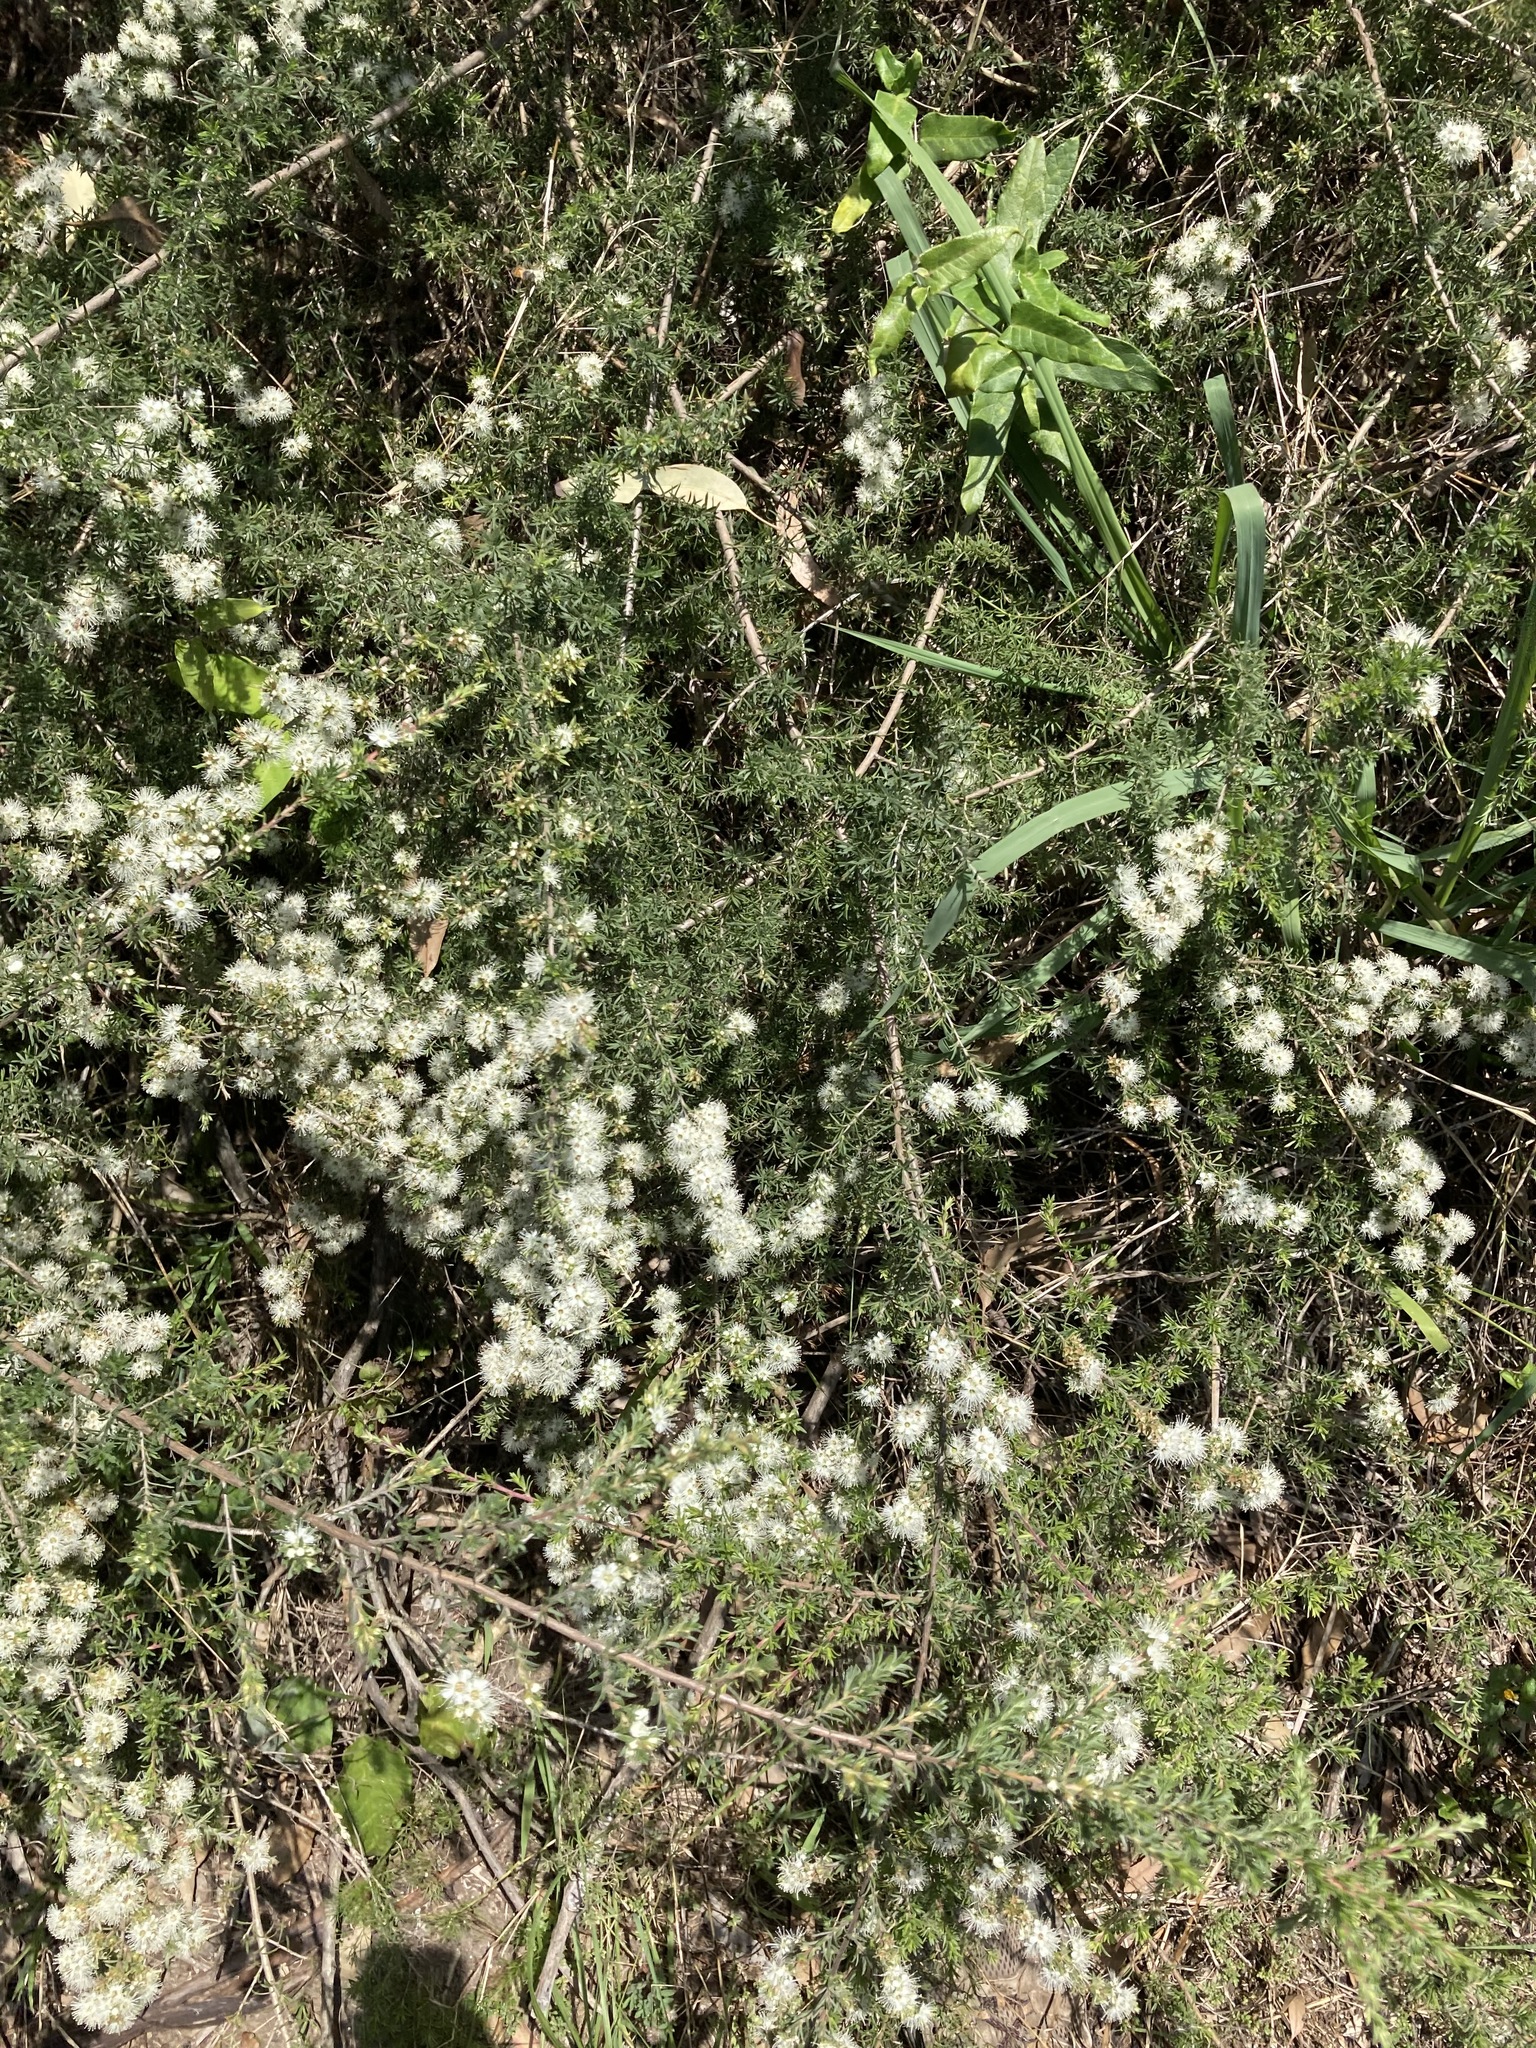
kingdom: Plantae
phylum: Tracheophyta
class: Magnoliopsida
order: Myrtales
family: Myrtaceae
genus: Kunzea
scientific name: Kunzea ambigua
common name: Tickbush
